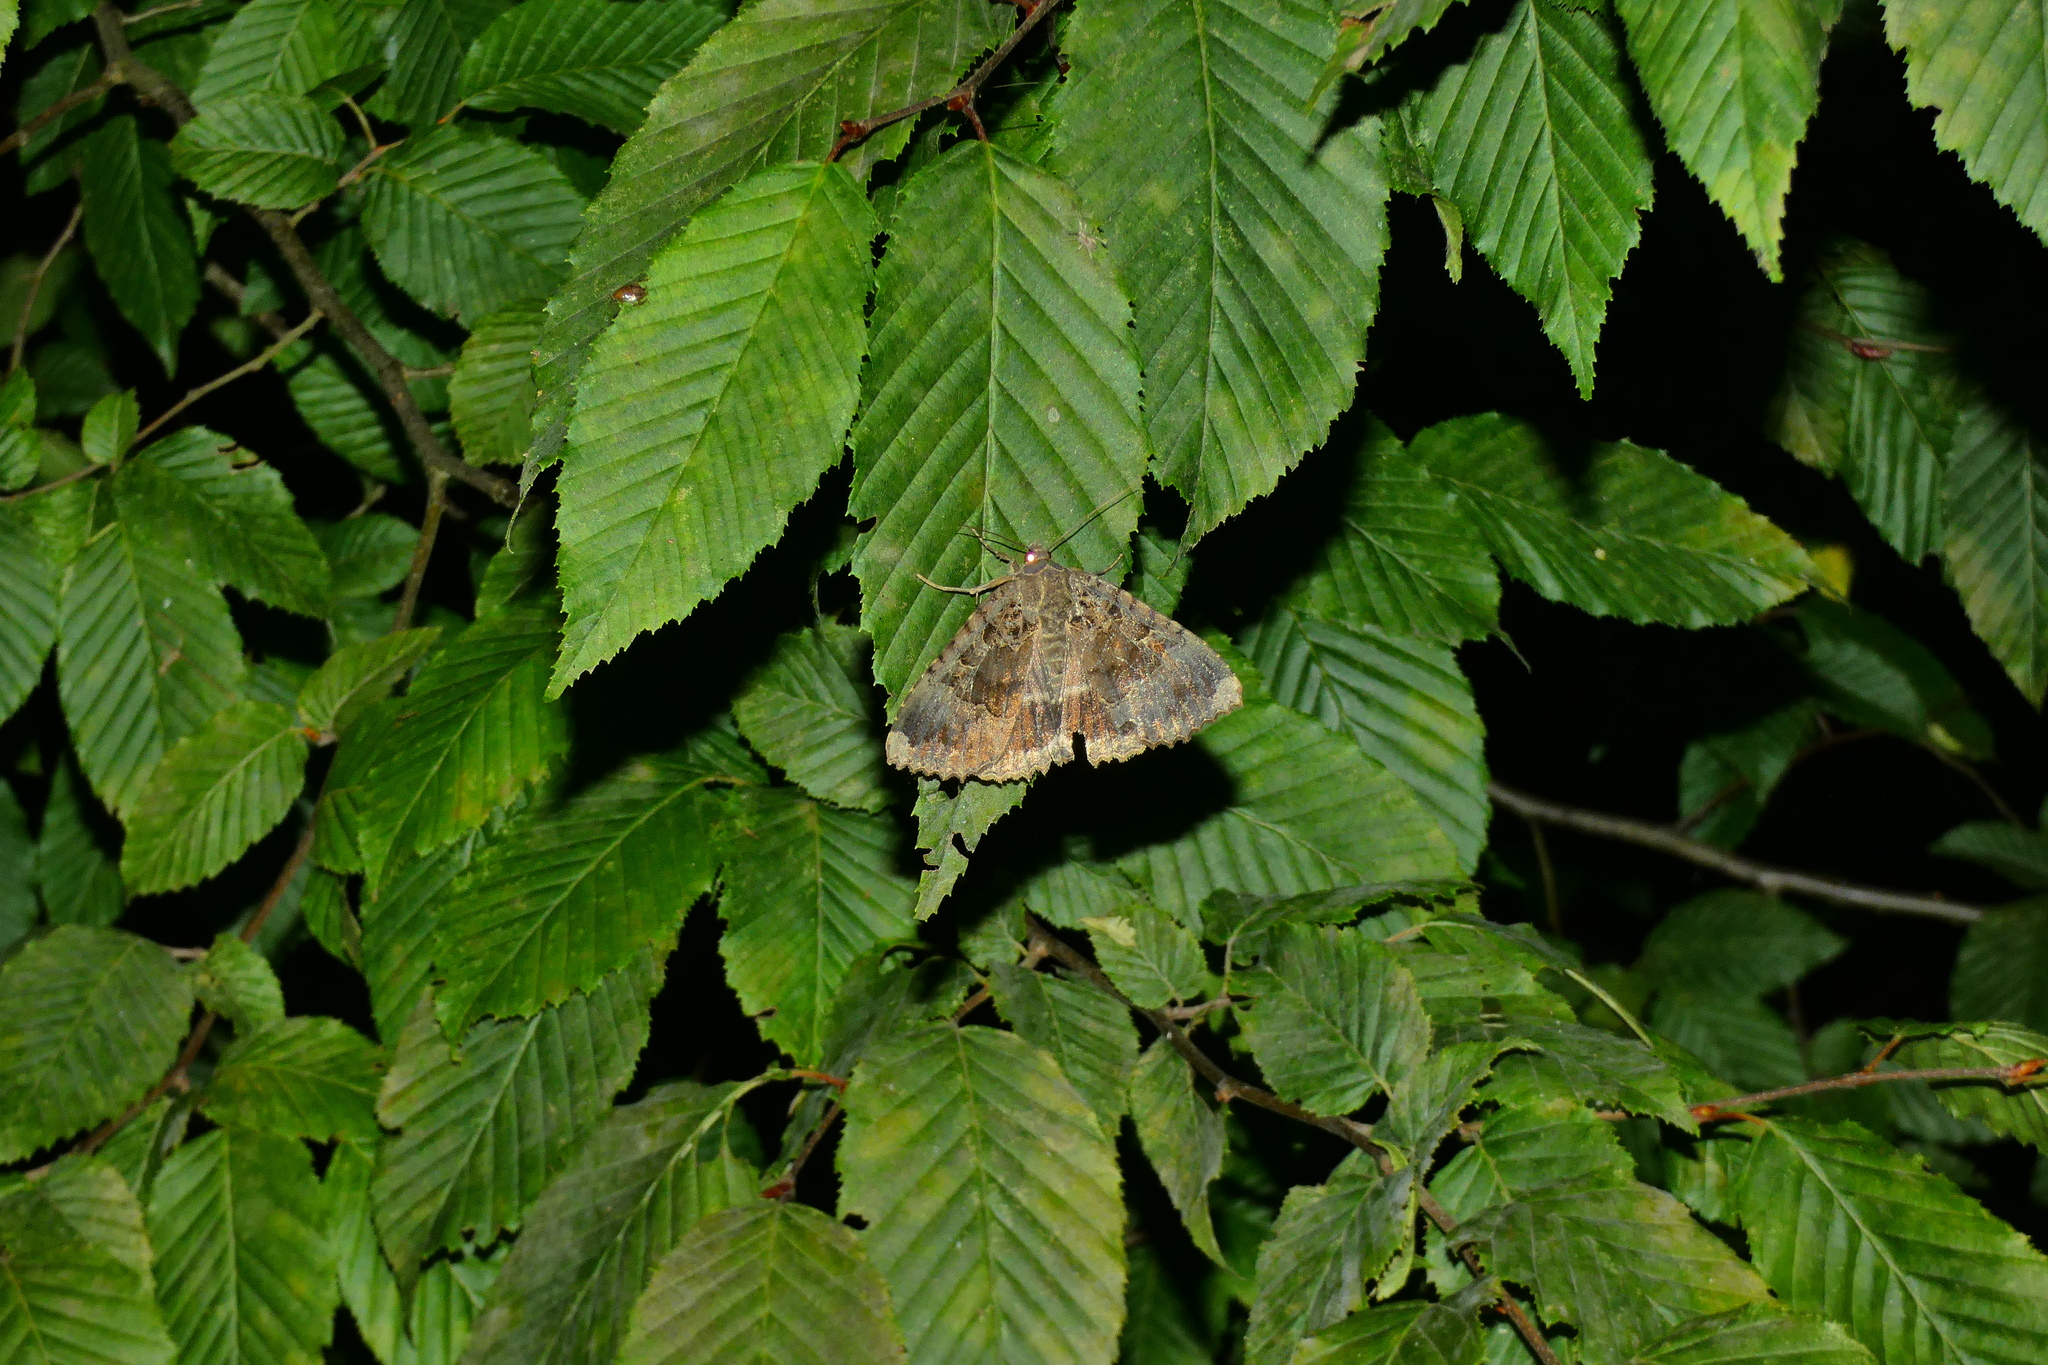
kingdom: Animalia
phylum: Arthropoda
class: Insecta
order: Lepidoptera
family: Noctuidae
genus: Mormo
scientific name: Mormo maura
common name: Old lady
